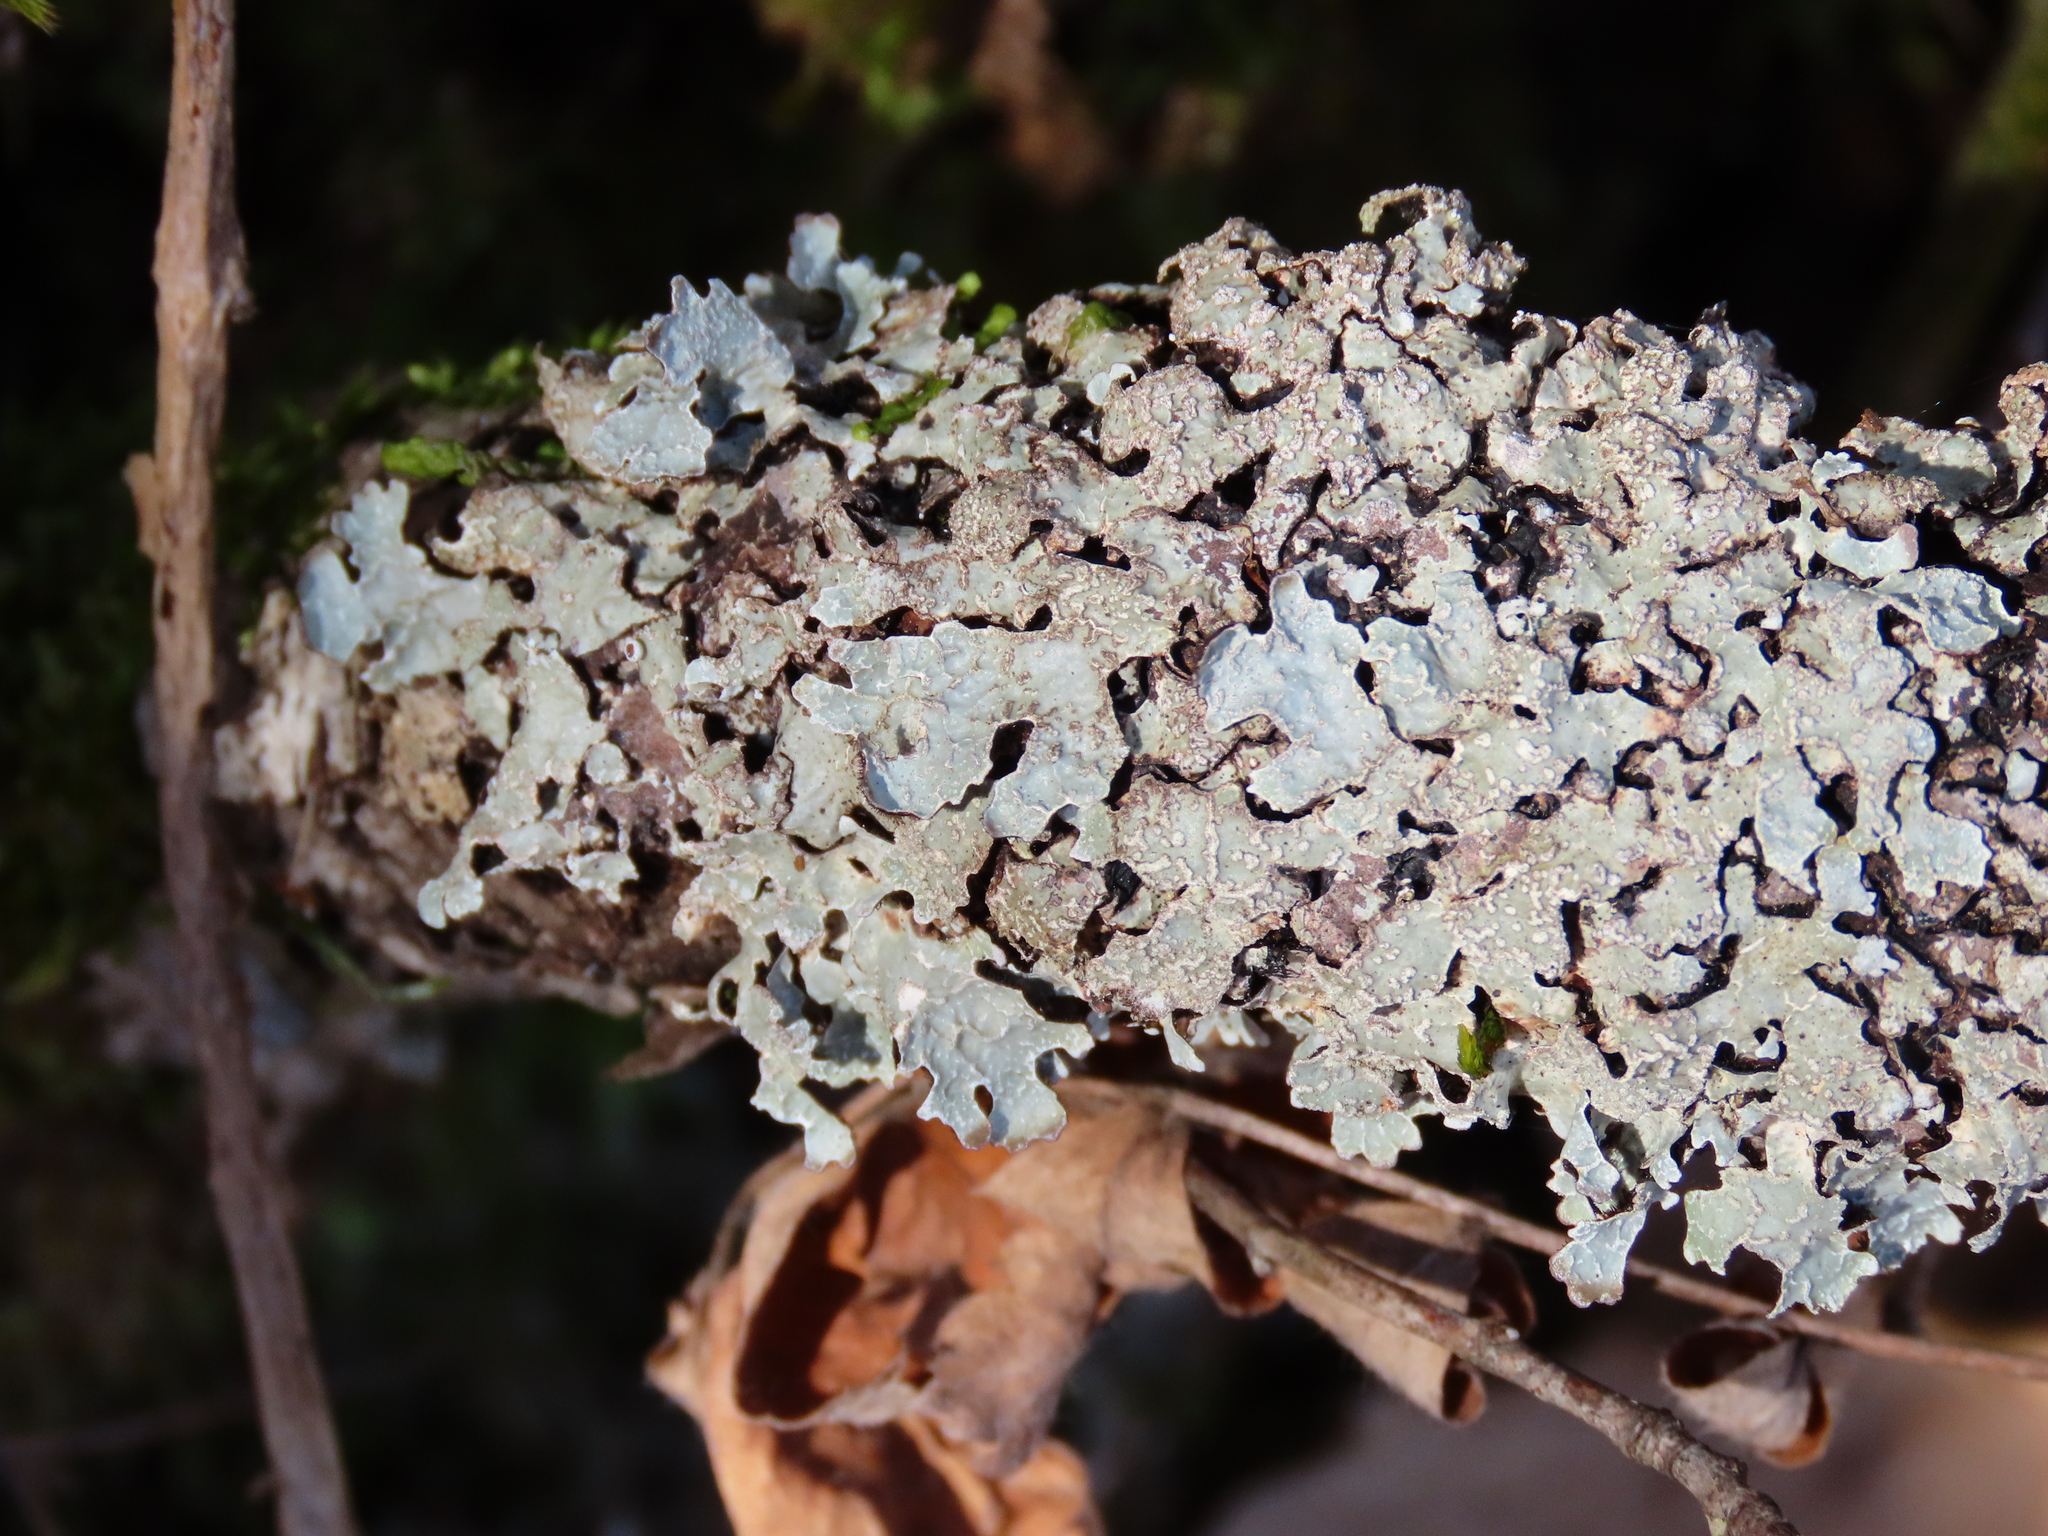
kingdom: Fungi
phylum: Ascomycota
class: Lecanoromycetes
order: Lecanorales
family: Parmeliaceae
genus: Parmelia
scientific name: Parmelia sulcata
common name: Netted shield lichen
